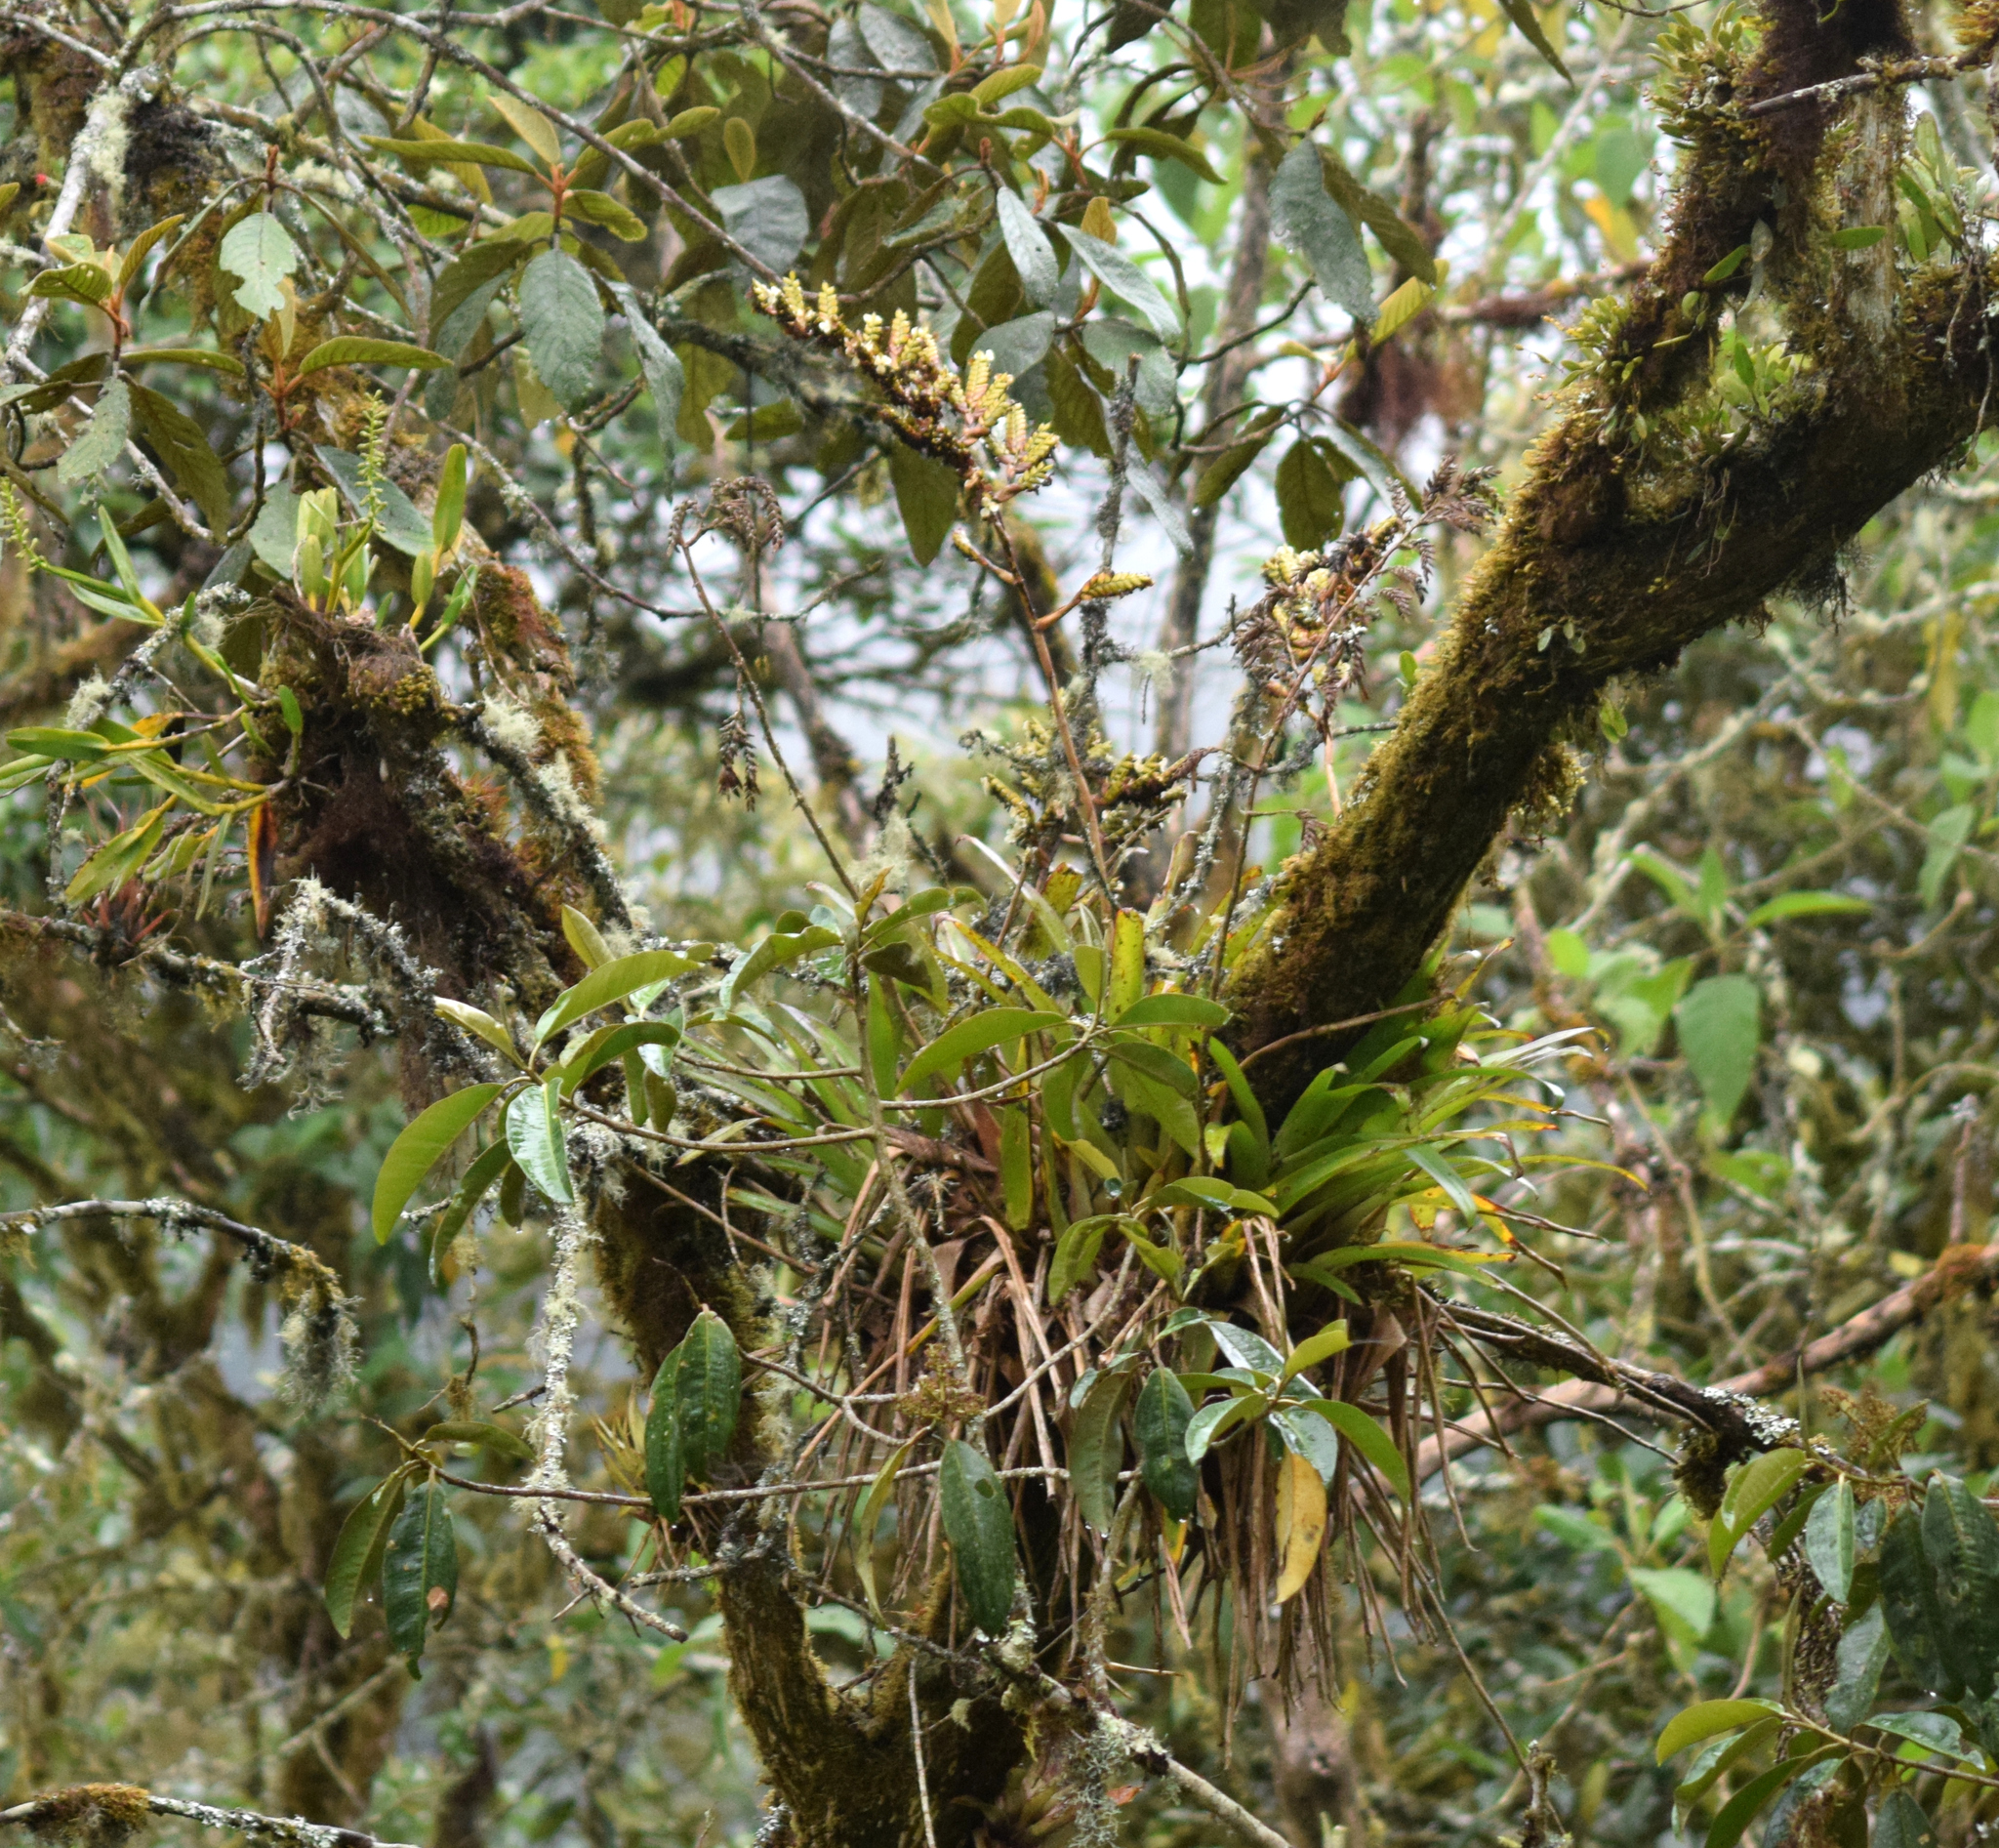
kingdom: Plantae
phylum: Tracheophyta
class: Liliopsida
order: Poales
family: Bromeliaceae
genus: Racinaea
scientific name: Racinaea riocreuxii
